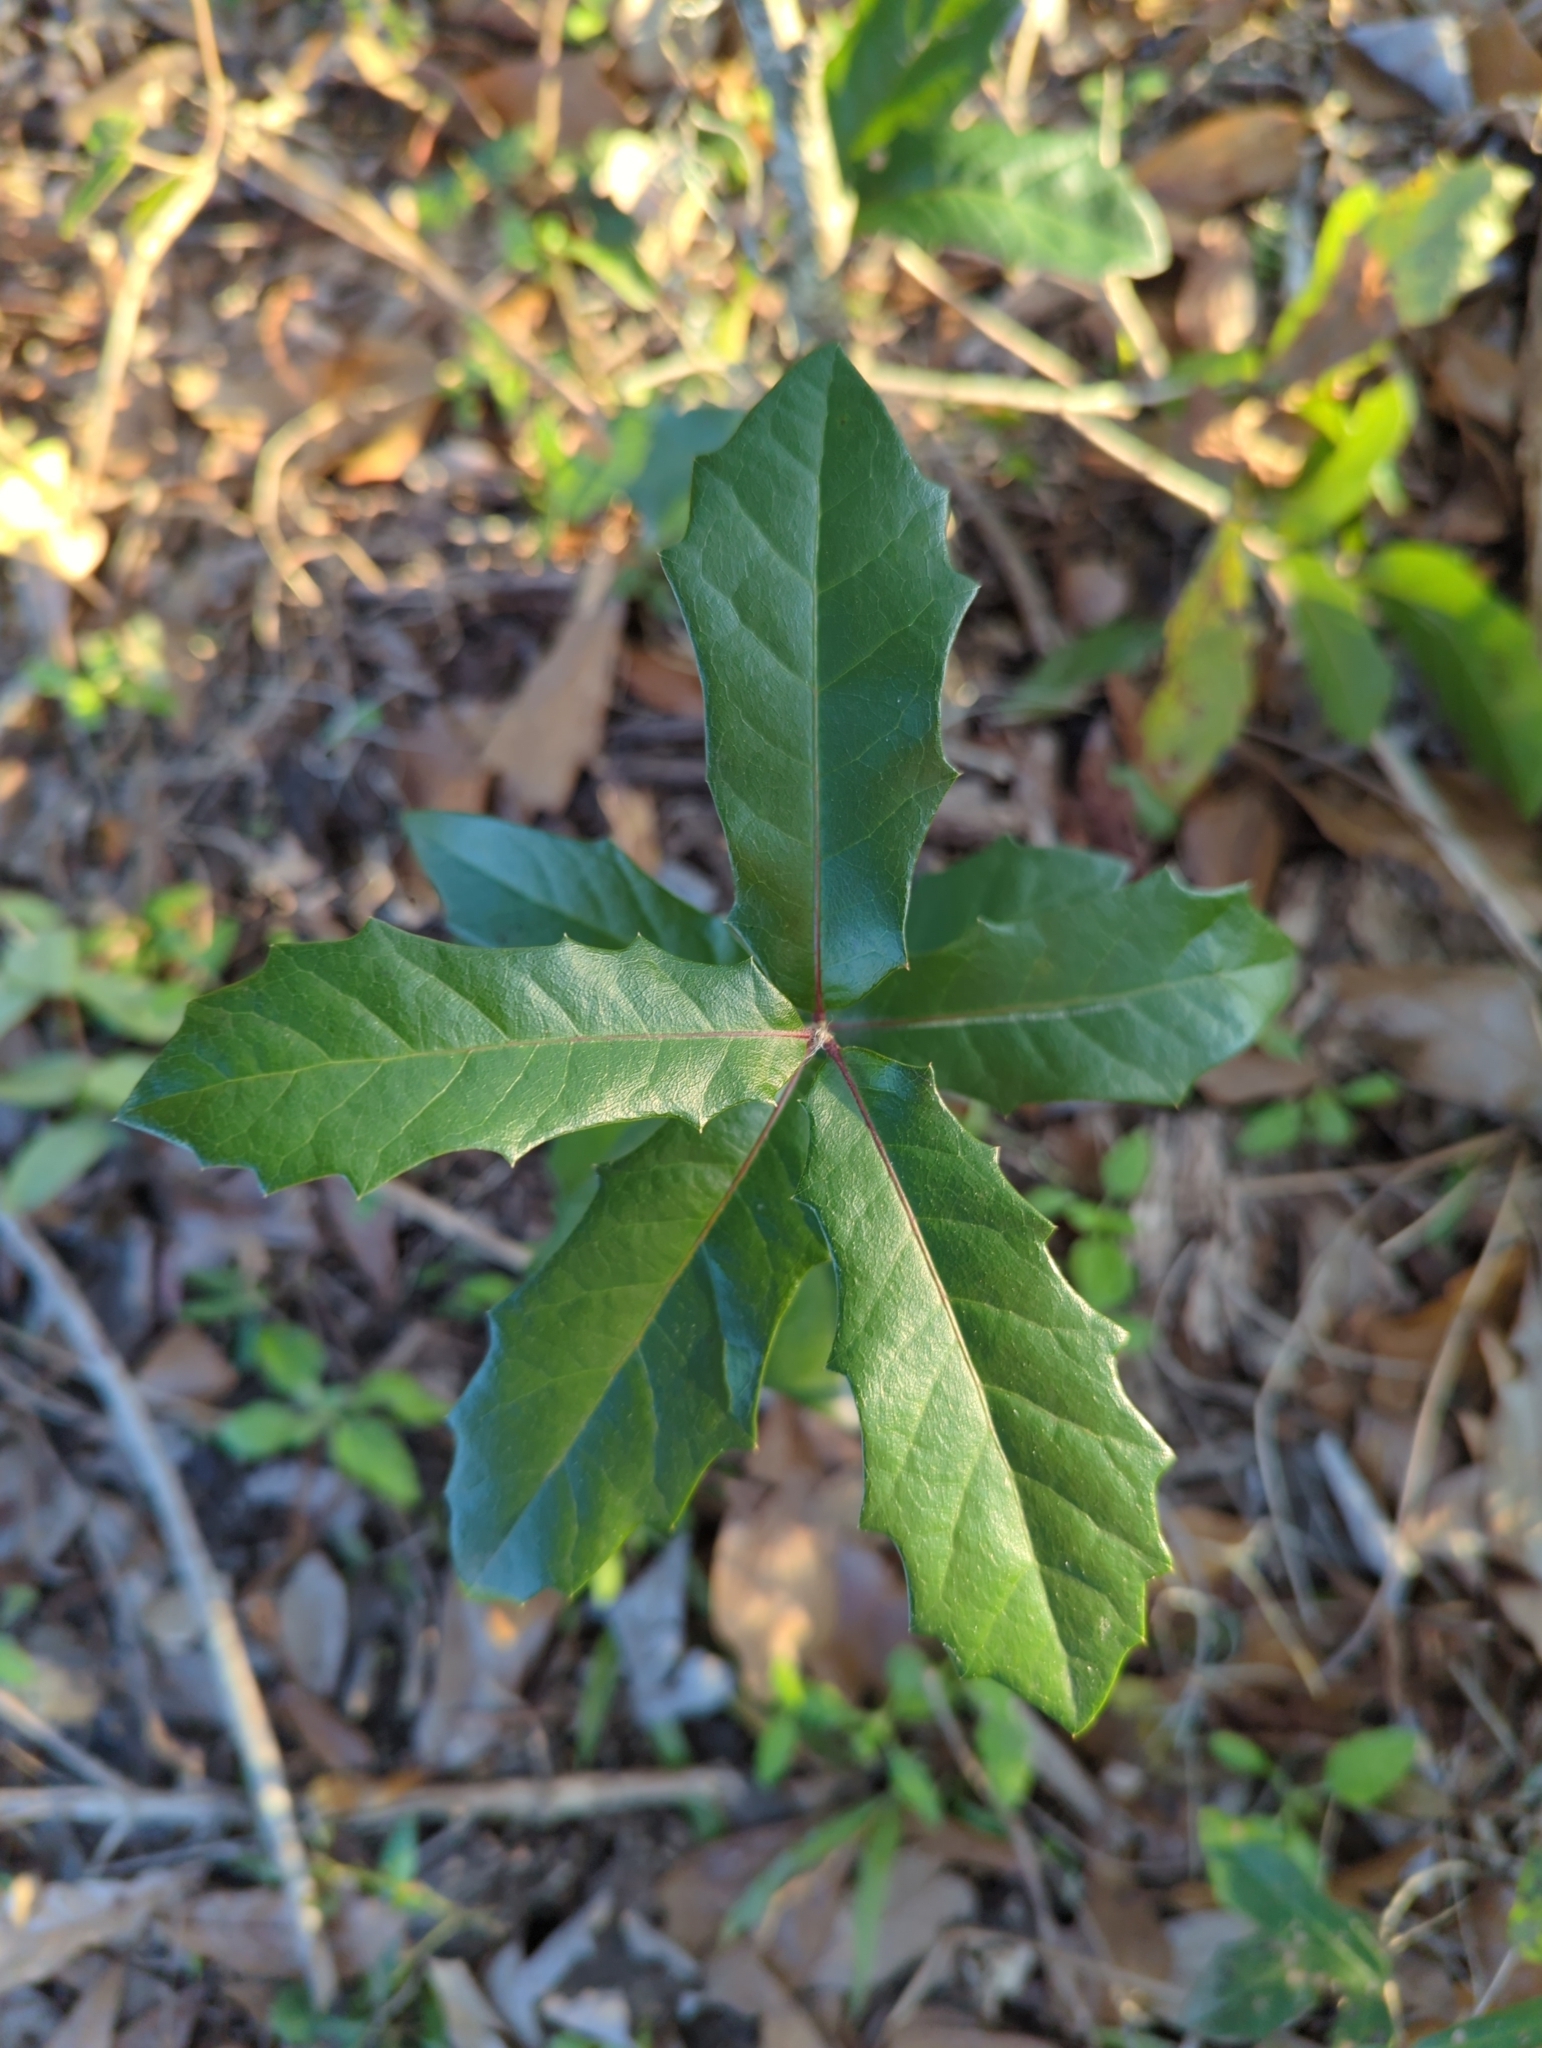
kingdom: Plantae
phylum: Tracheophyta
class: Magnoliopsida
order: Fagales
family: Fagaceae
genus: Quercus
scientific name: Quercus virginiana
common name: Southern live oak
